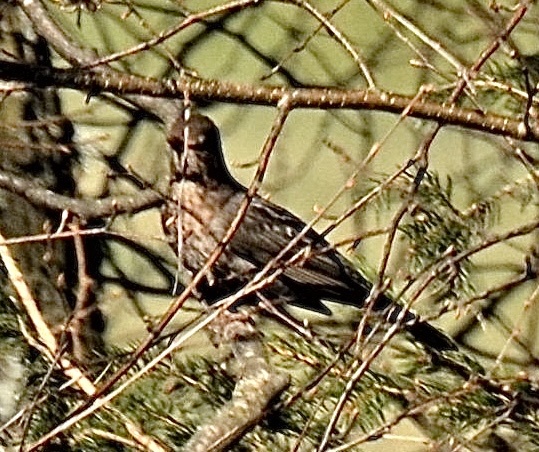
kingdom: Animalia
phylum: Chordata
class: Aves
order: Passeriformes
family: Turdidae
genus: Turdus
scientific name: Turdus merula
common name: Common blackbird
